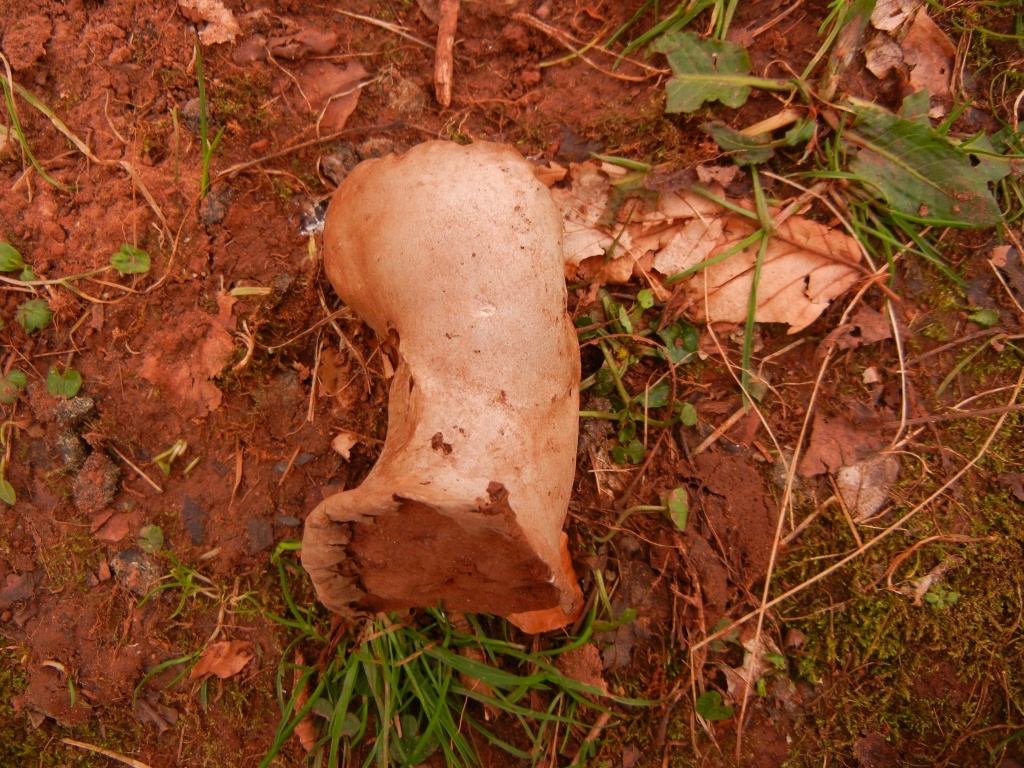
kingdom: Fungi
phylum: Basidiomycota
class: Agaricomycetes
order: Agaricales
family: Lycoperdaceae
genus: Lycoperdon
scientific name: Lycoperdon excipuliforme
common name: Pestle puffball
